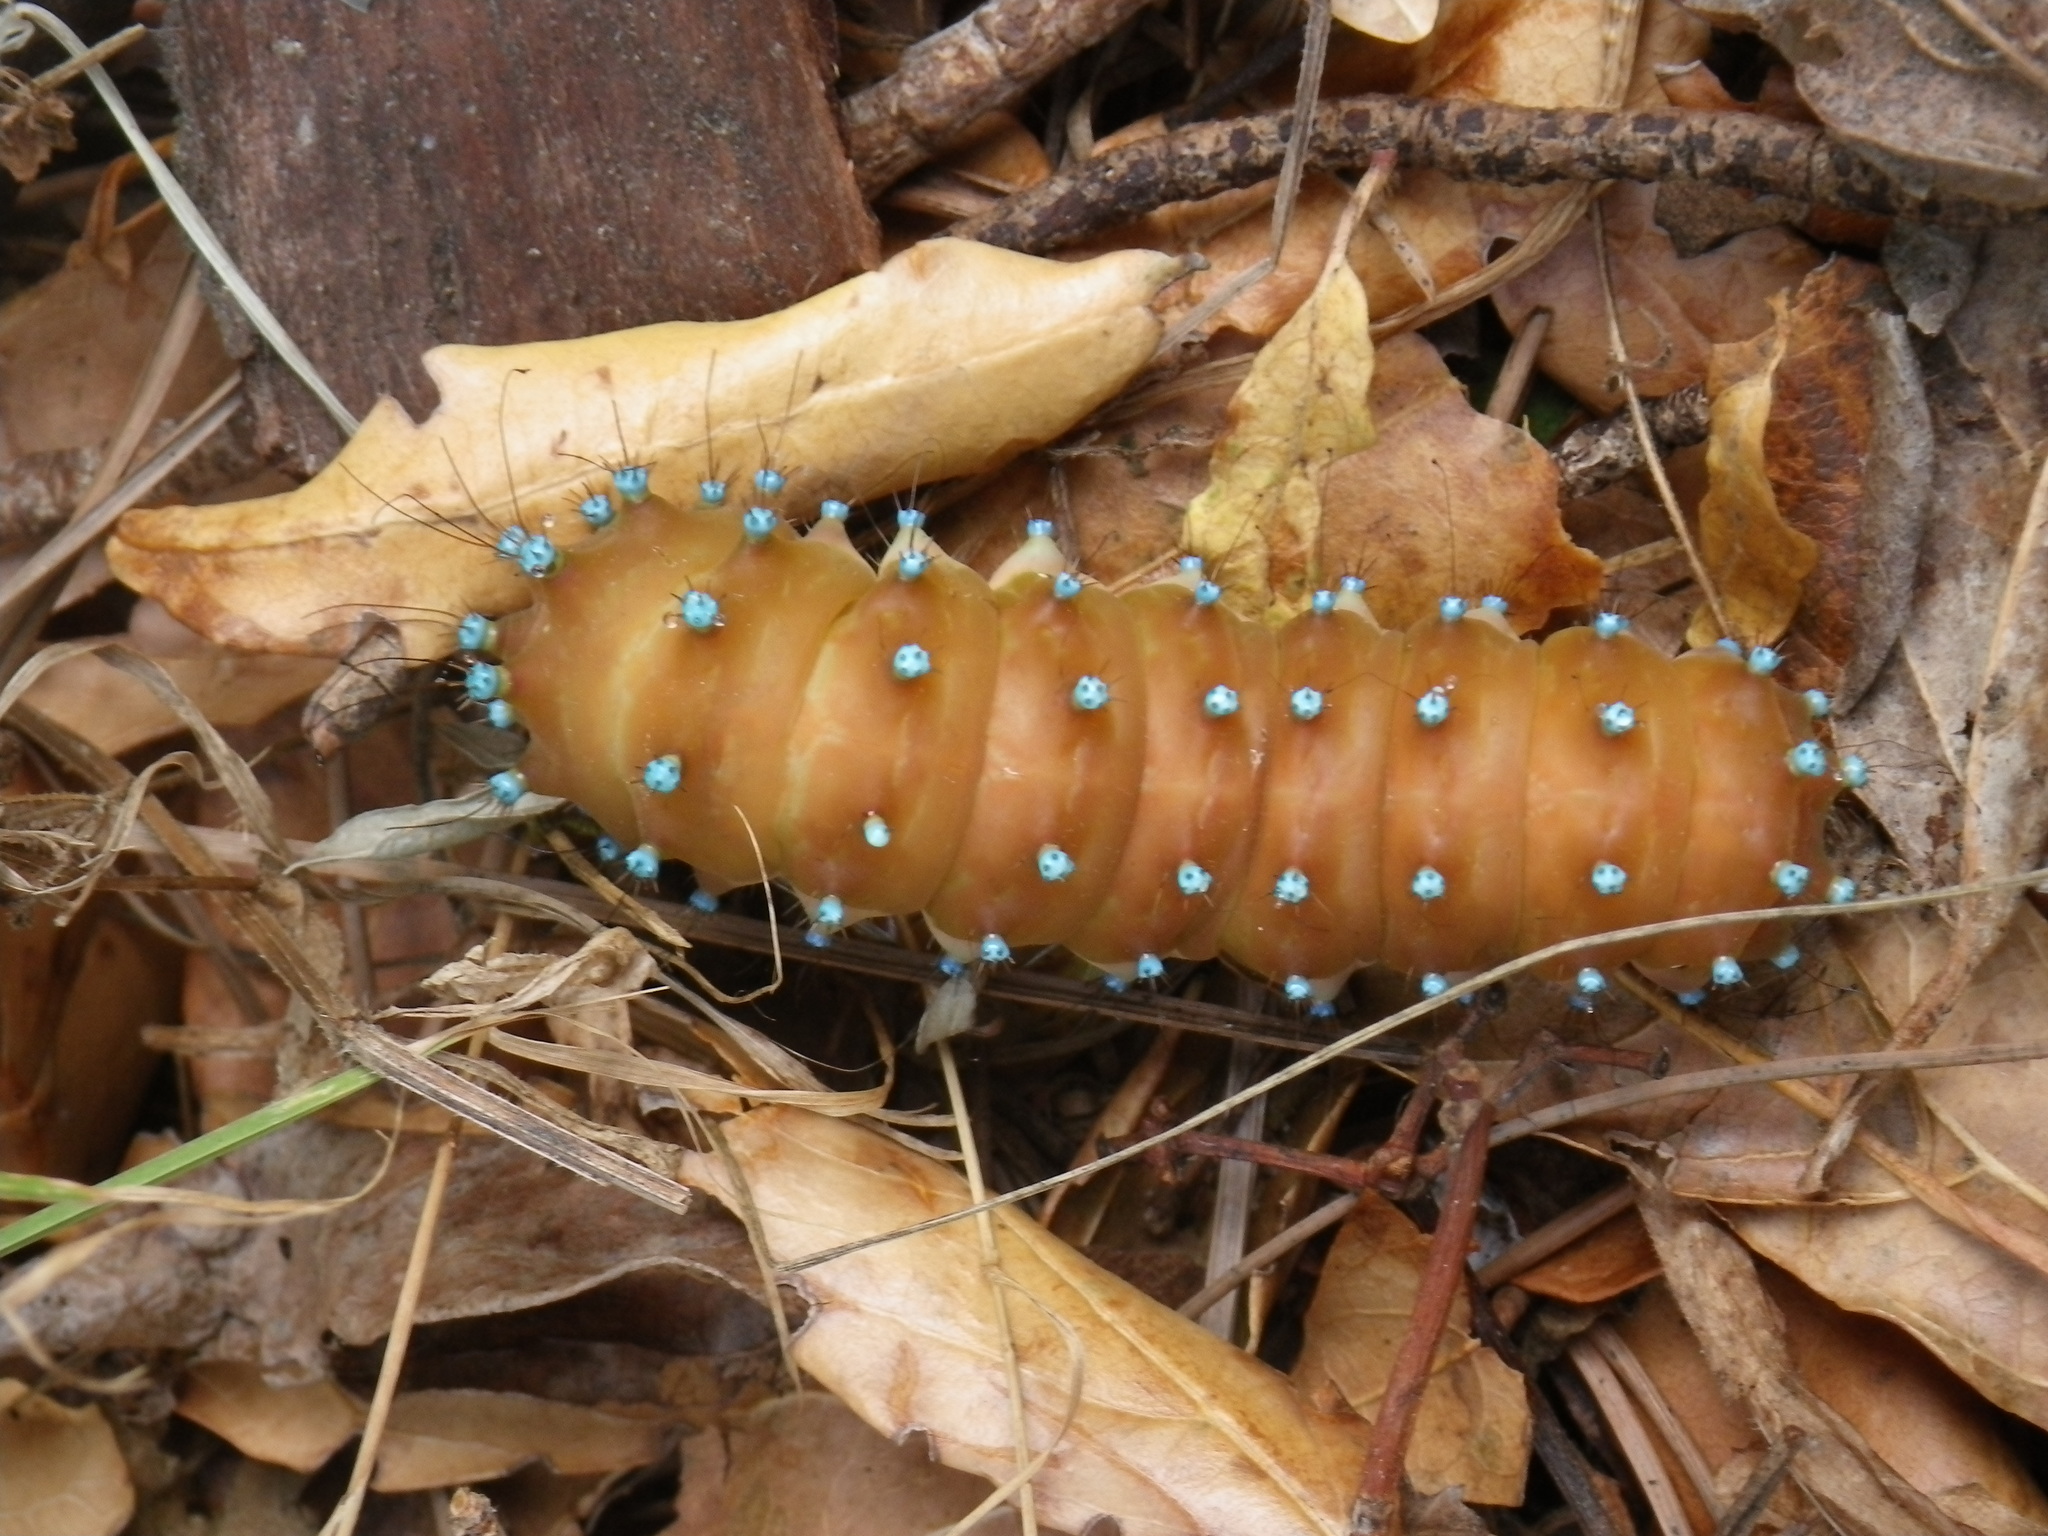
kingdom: Animalia
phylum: Arthropoda
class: Insecta
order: Lepidoptera
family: Saturniidae
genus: Saturnia
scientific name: Saturnia pyri
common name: Great peacock moth
